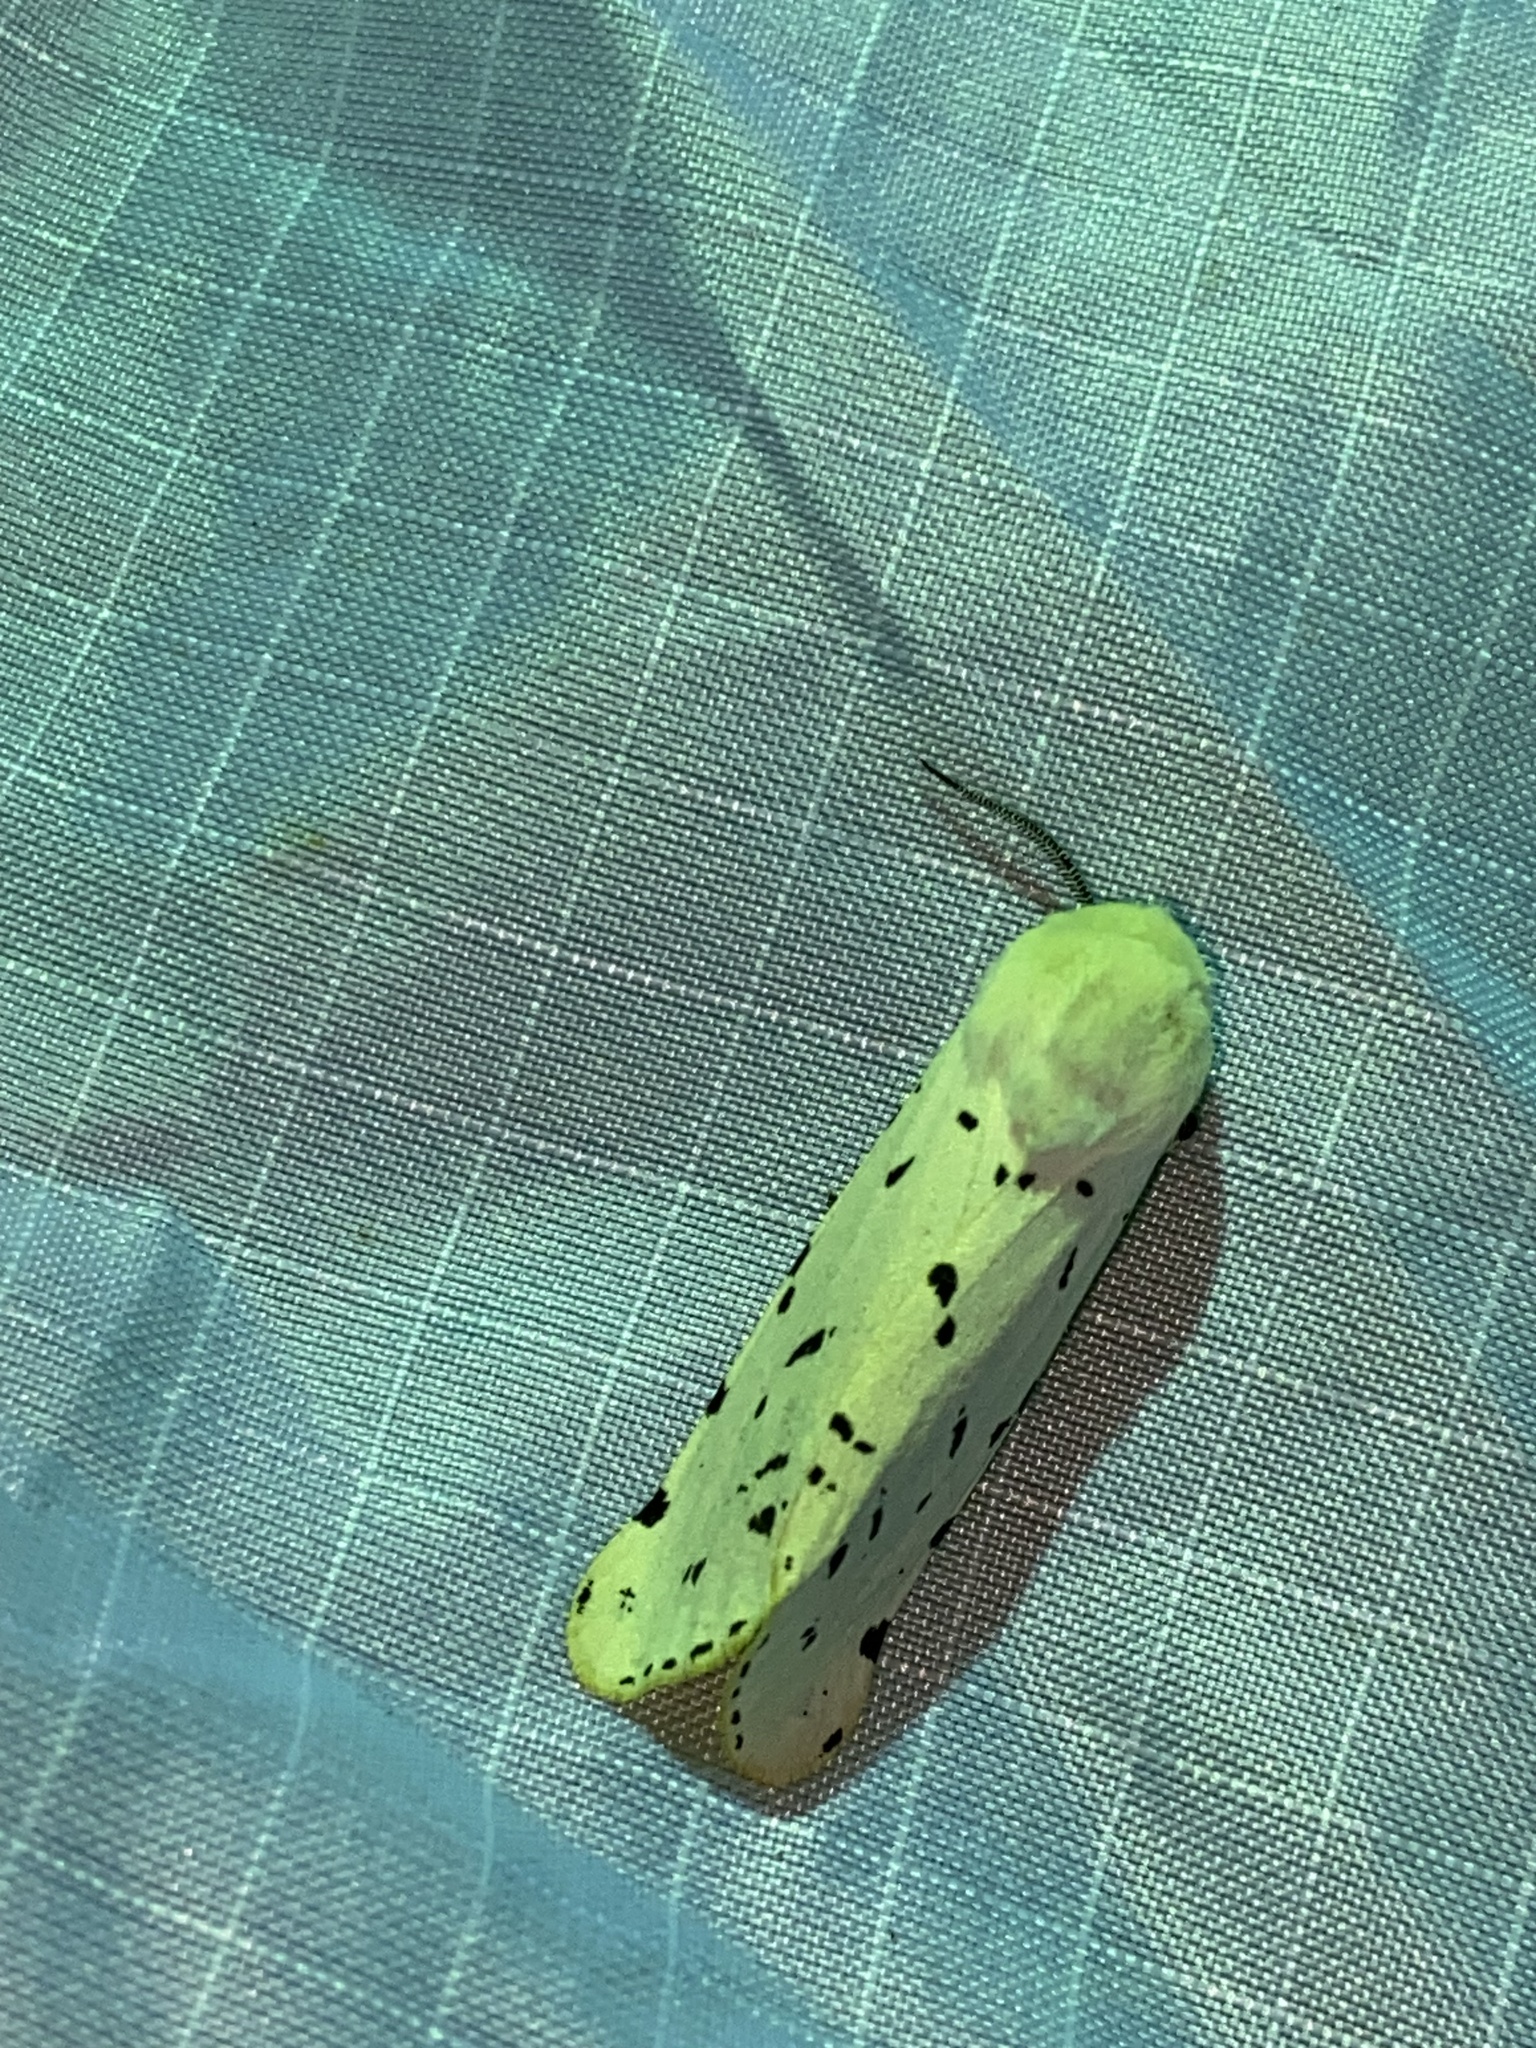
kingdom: Animalia
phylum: Arthropoda
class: Insecta
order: Lepidoptera
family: Erebidae
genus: Estigmene
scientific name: Estigmene acrea
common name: Salt marsh moth
